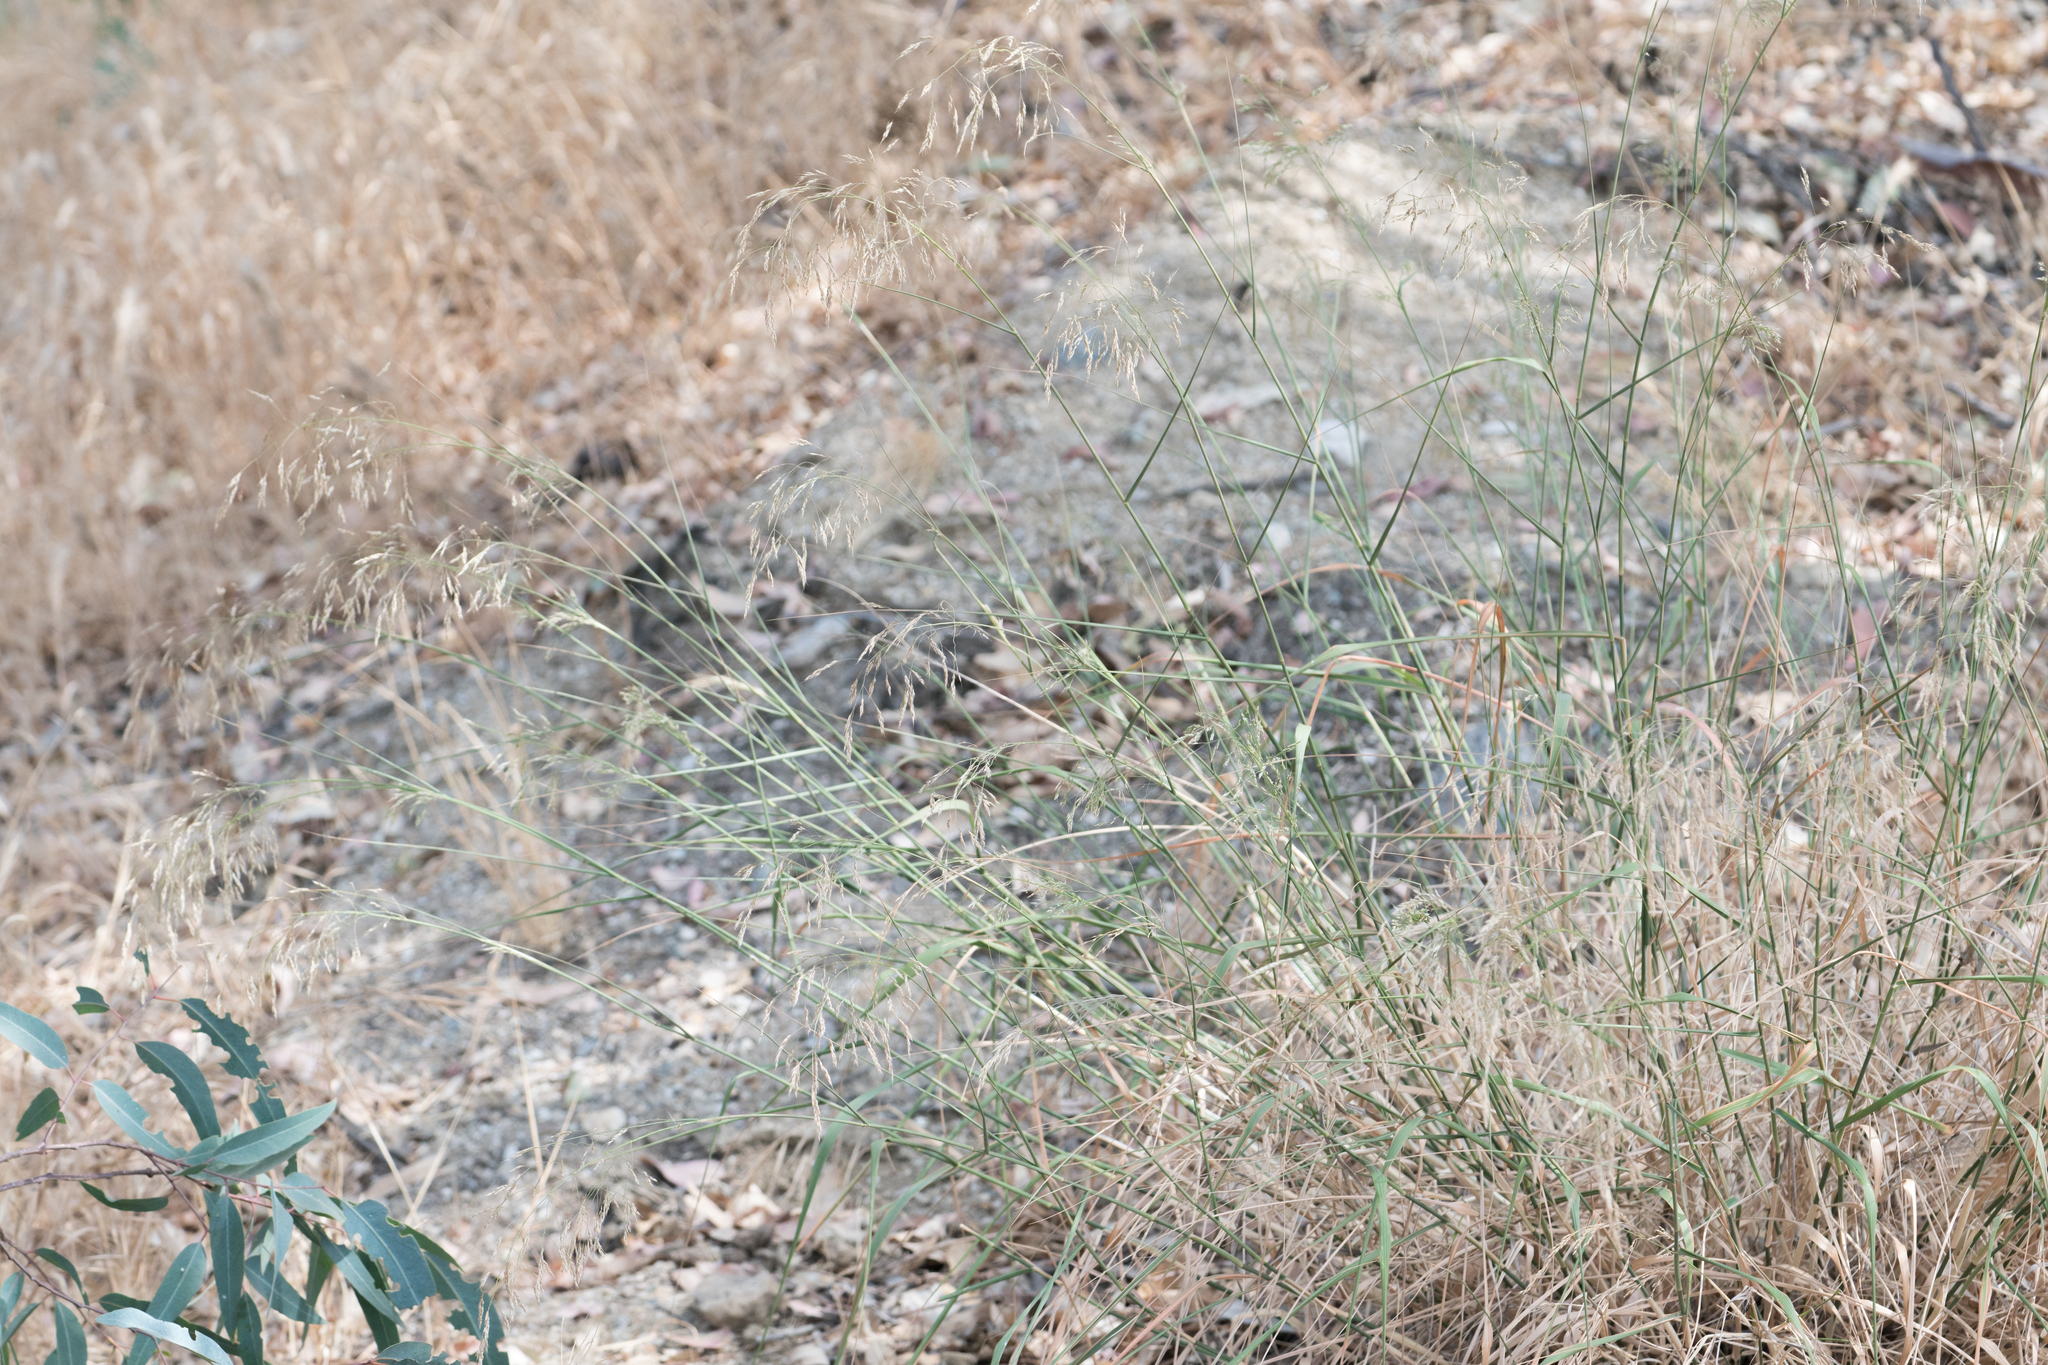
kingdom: Plantae
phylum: Tracheophyta
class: Liliopsida
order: Poales
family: Poaceae
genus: Oloptum
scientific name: Oloptum miliaceum
